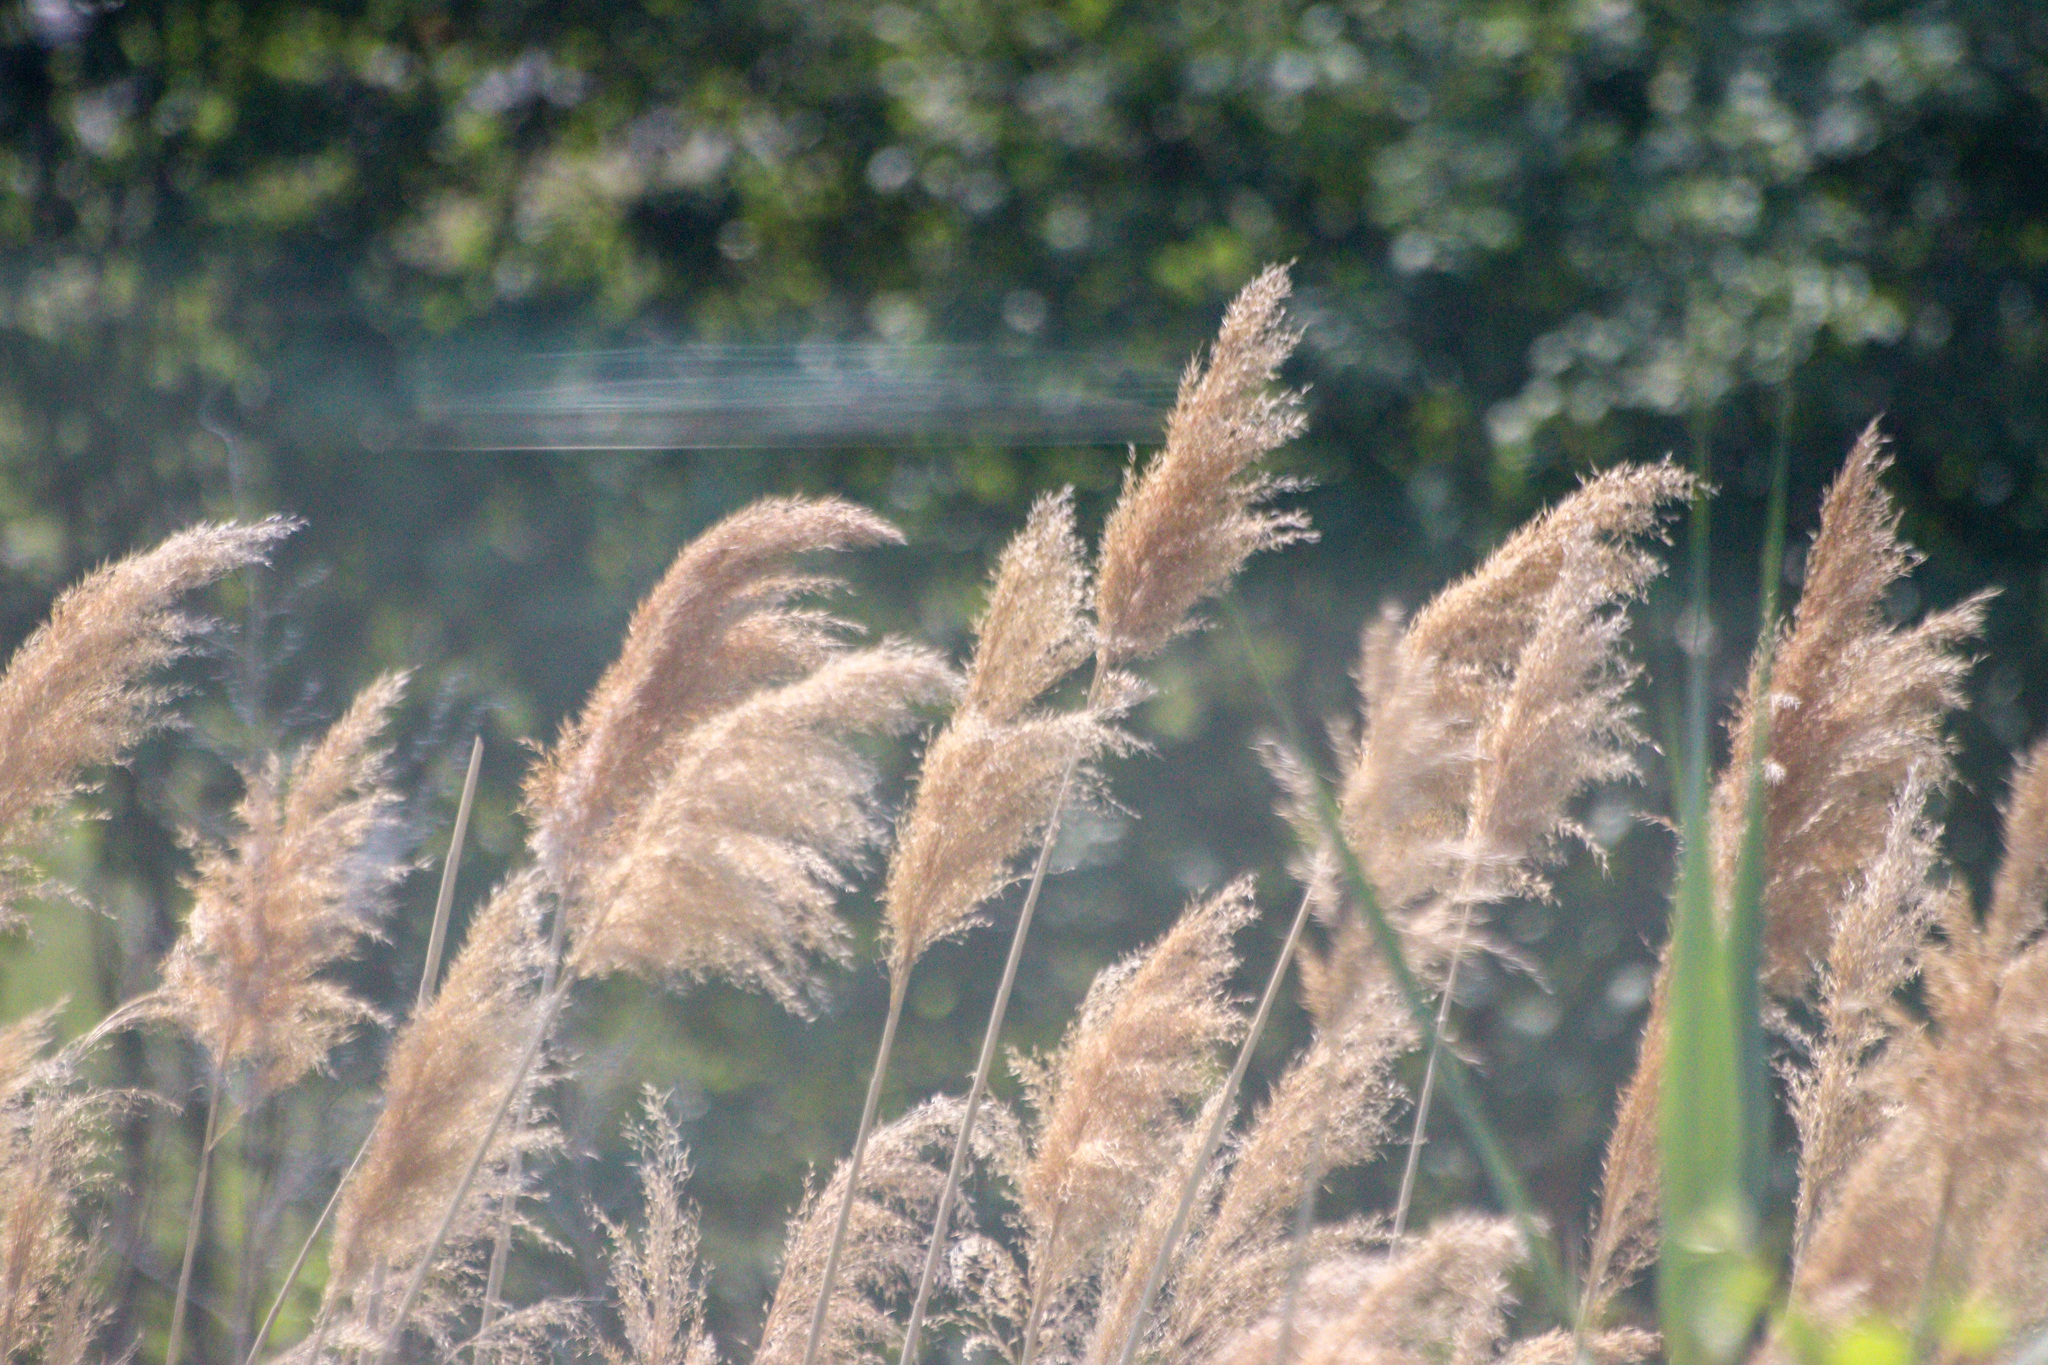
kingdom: Plantae
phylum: Tracheophyta
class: Liliopsida
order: Poales
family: Poaceae
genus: Phragmites
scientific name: Phragmites australis
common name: Common reed
